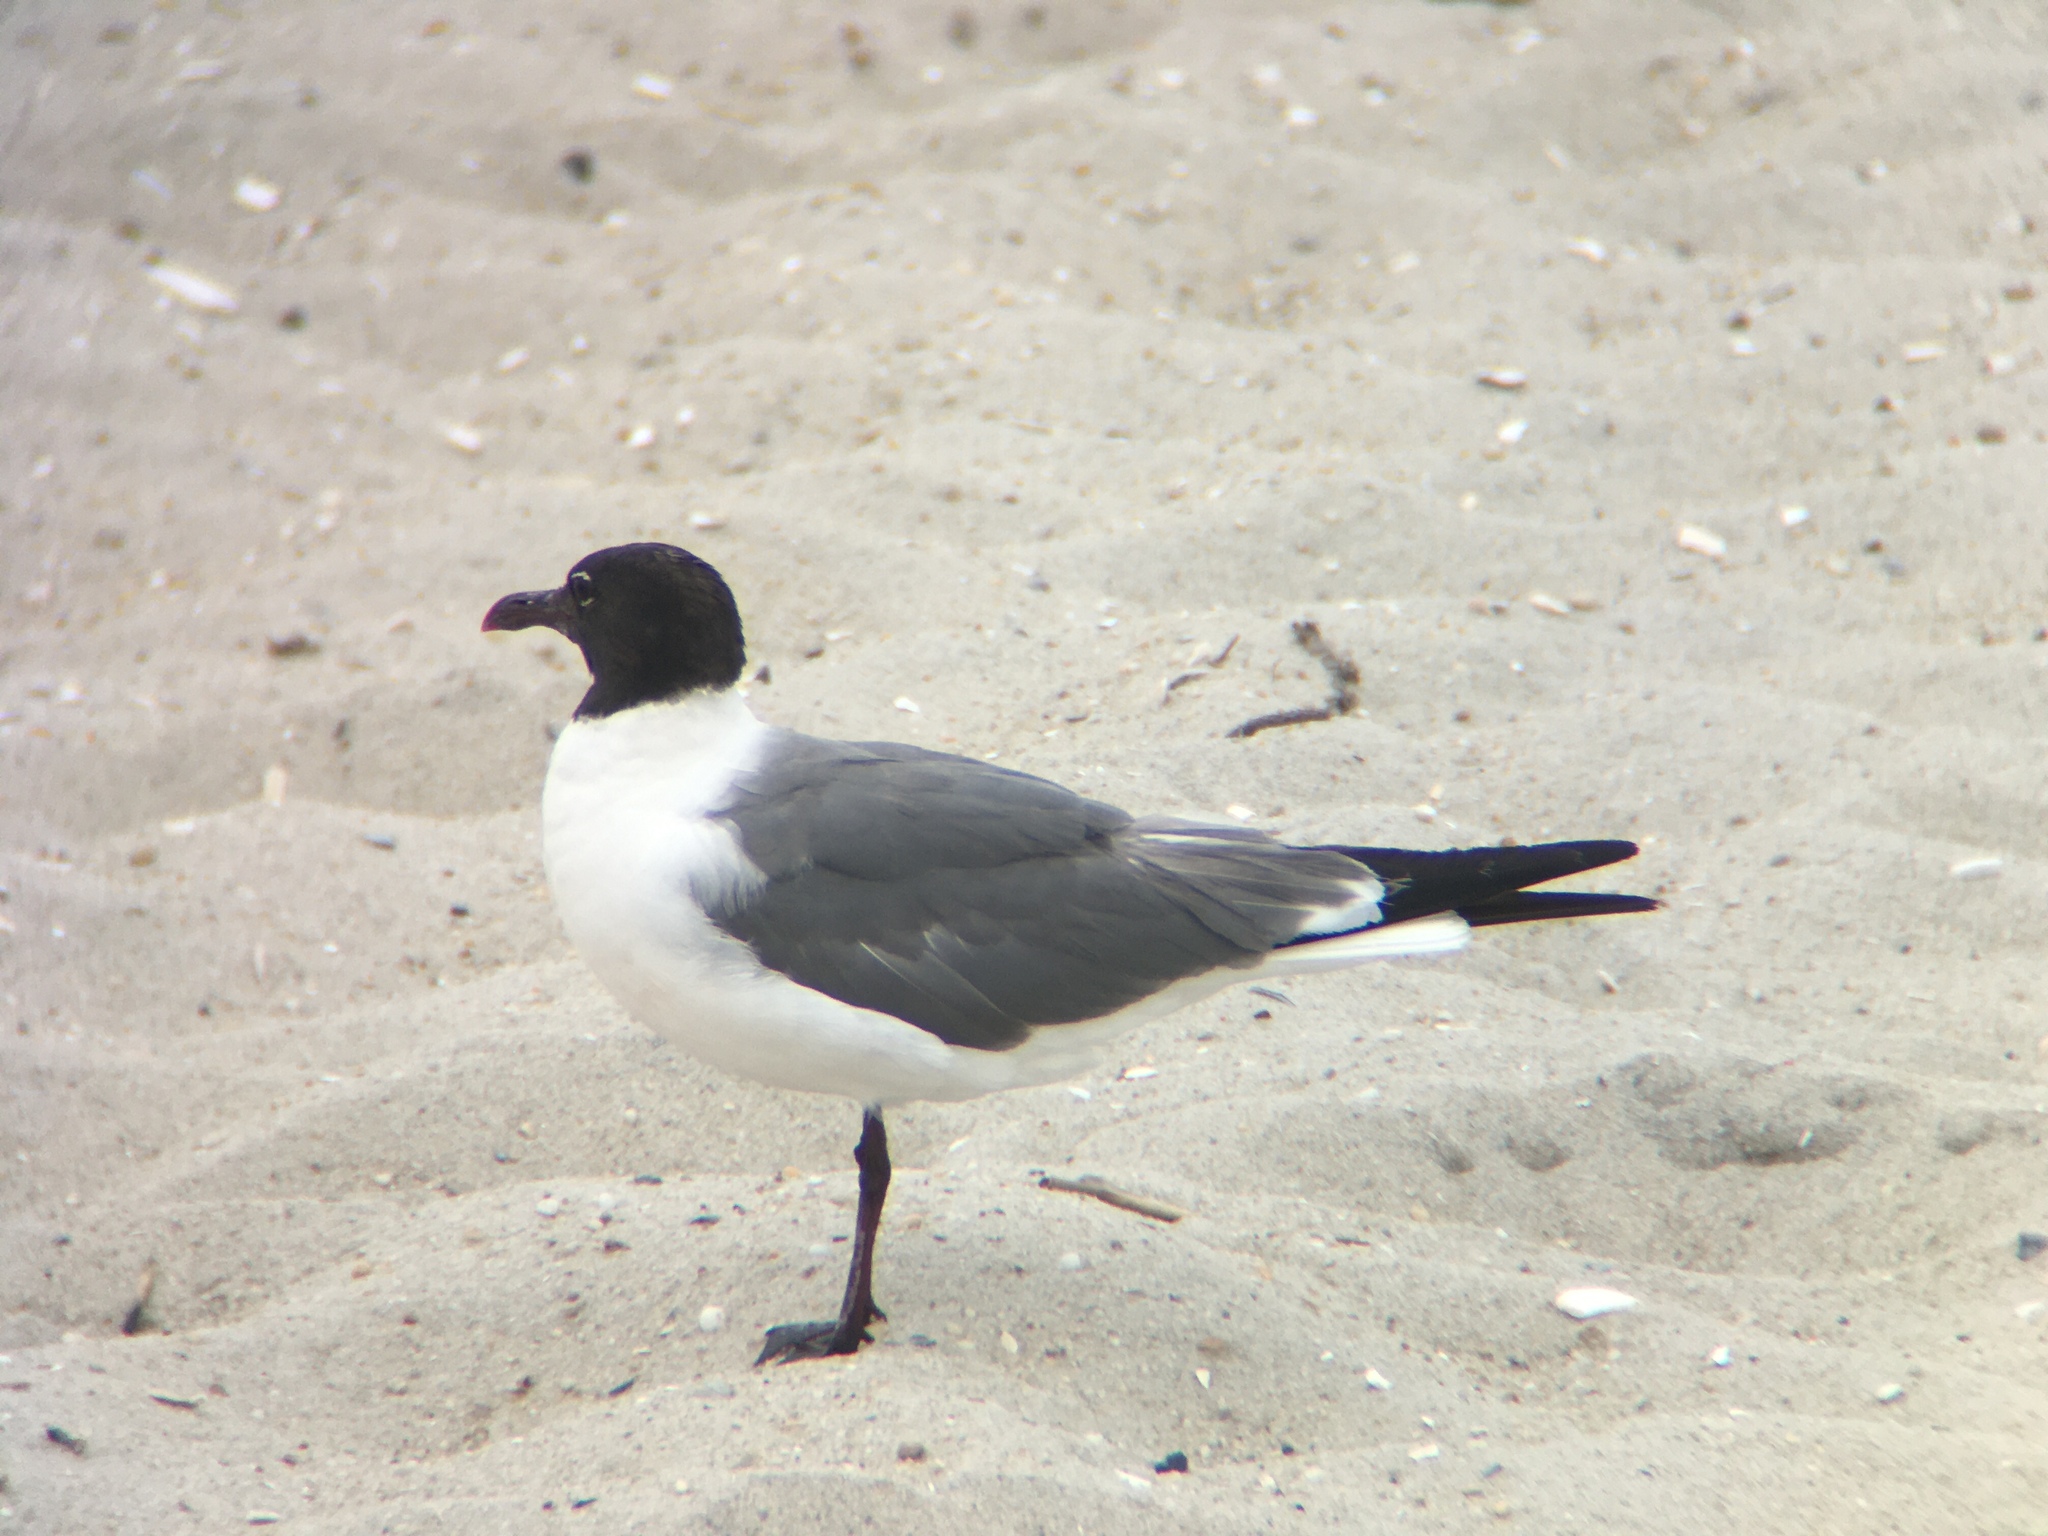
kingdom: Animalia
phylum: Chordata
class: Aves
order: Charadriiformes
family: Laridae
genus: Leucophaeus
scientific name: Leucophaeus atricilla
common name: Laughing gull
